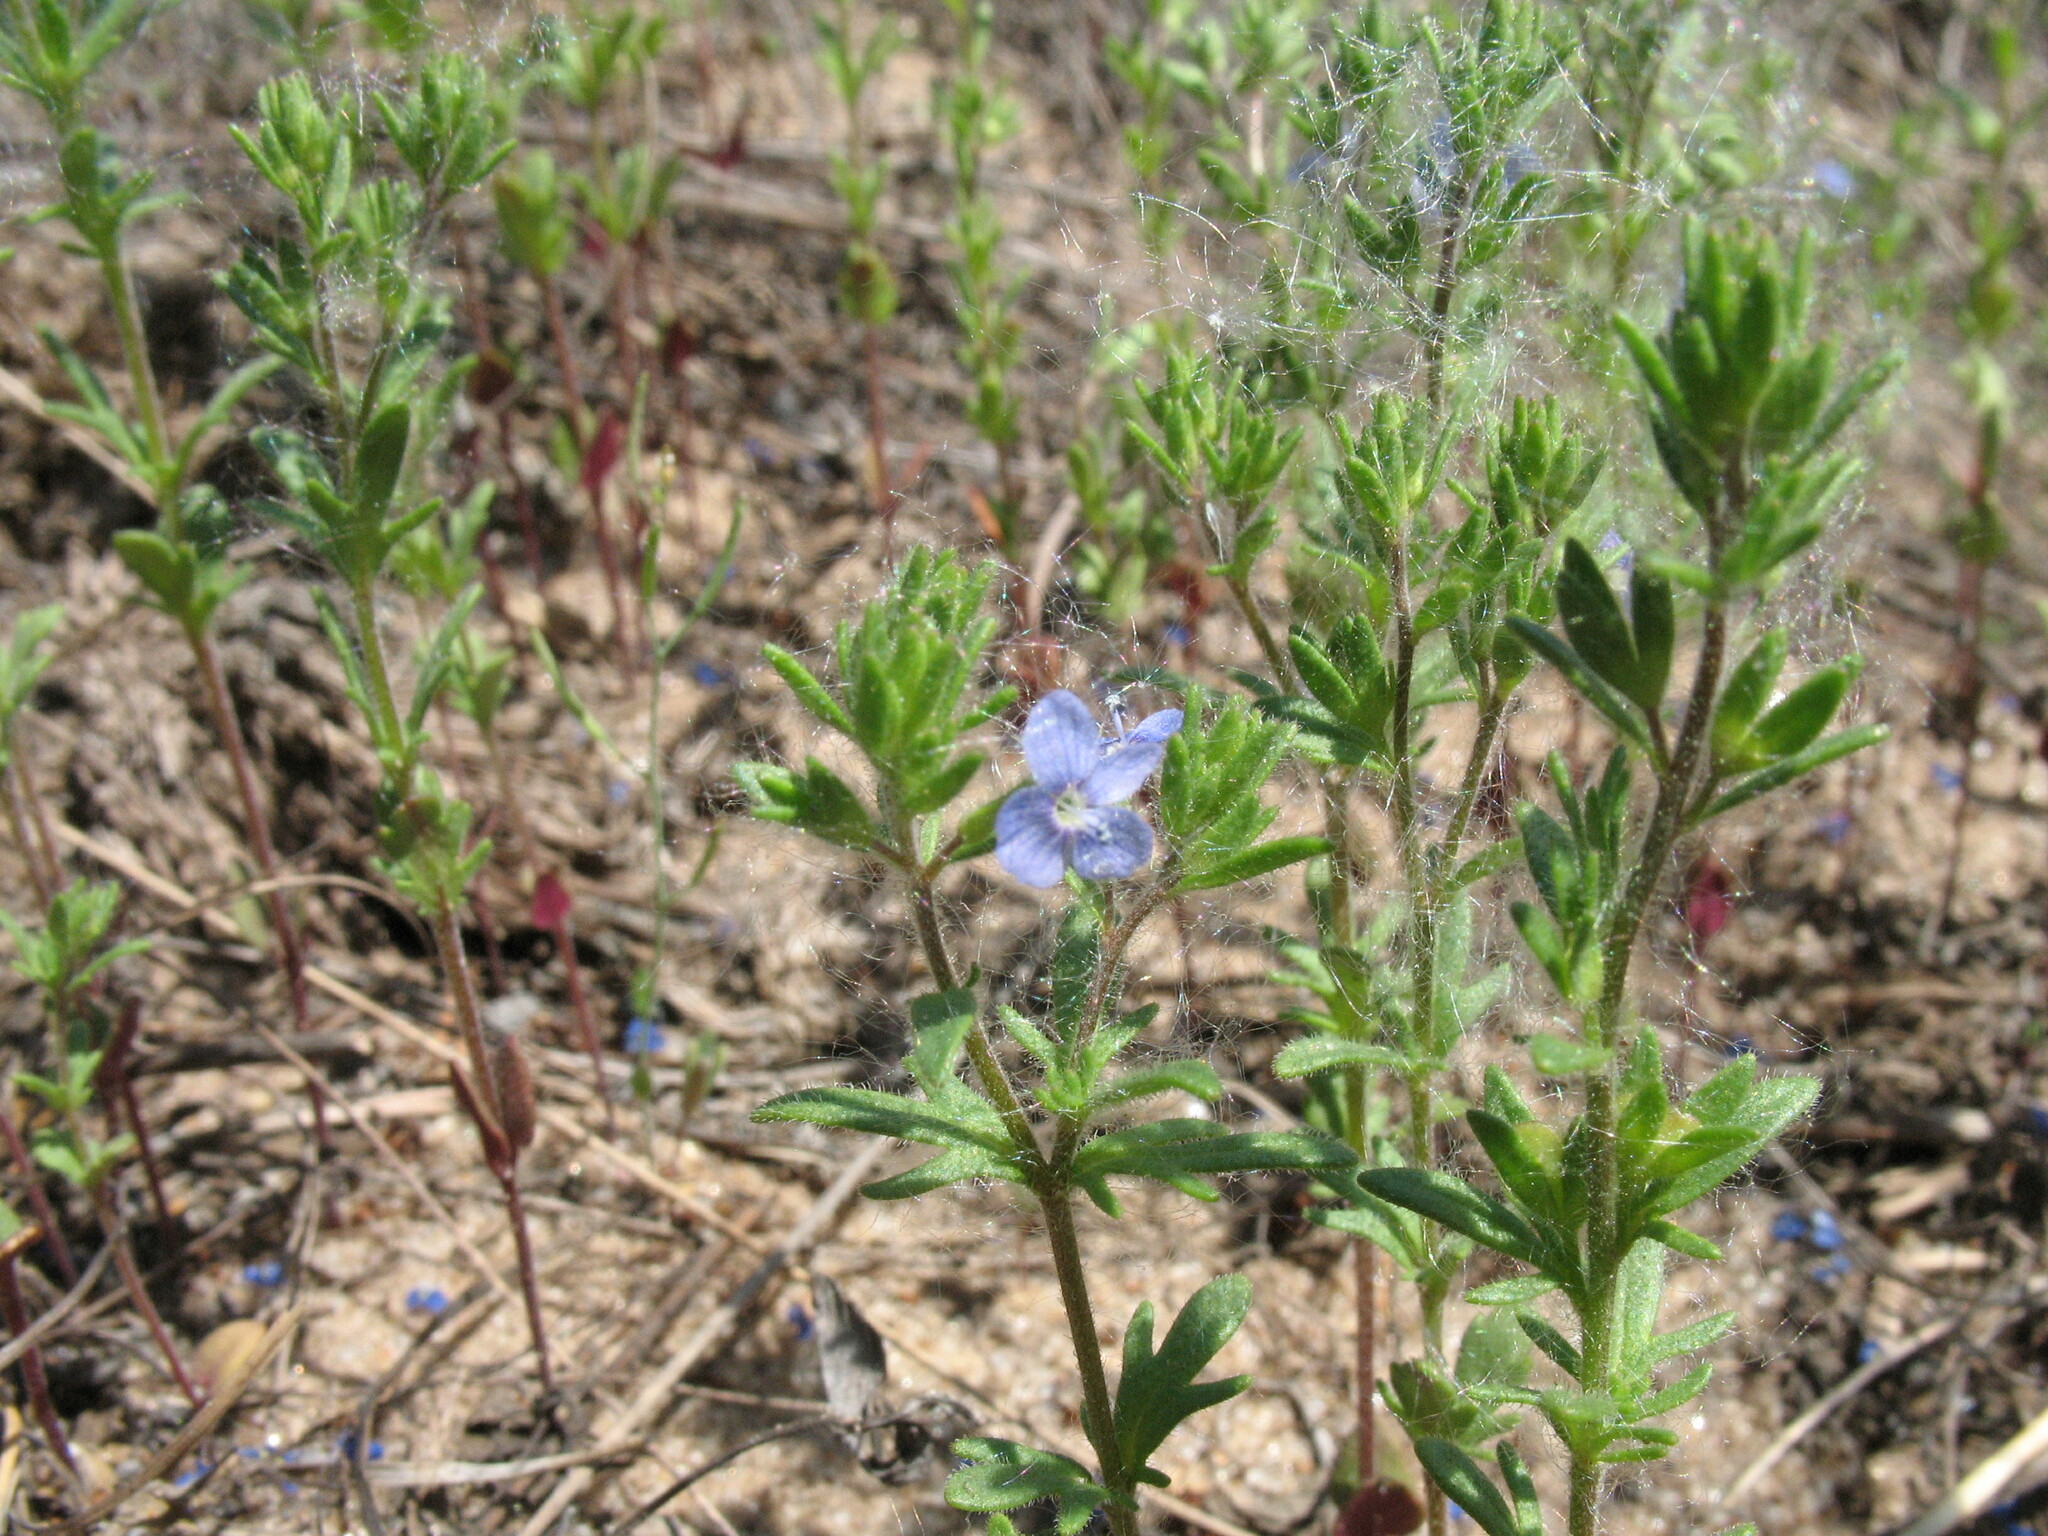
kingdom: Plantae
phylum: Tracheophyta
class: Magnoliopsida
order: Lamiales
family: Plantaginaceae
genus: Veronica
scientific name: Veronica dillenii
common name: Dillenius' speedwell
